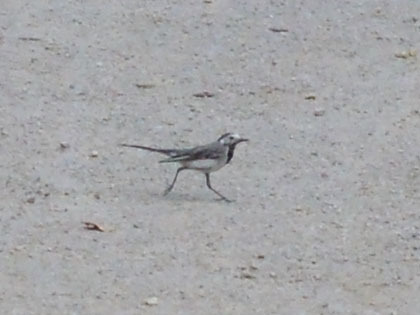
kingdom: Animalia
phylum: Chordata
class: Aves
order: Passeriformes
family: Motacillidae
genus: Motacilla
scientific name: Motacilla alba
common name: White wagtail
